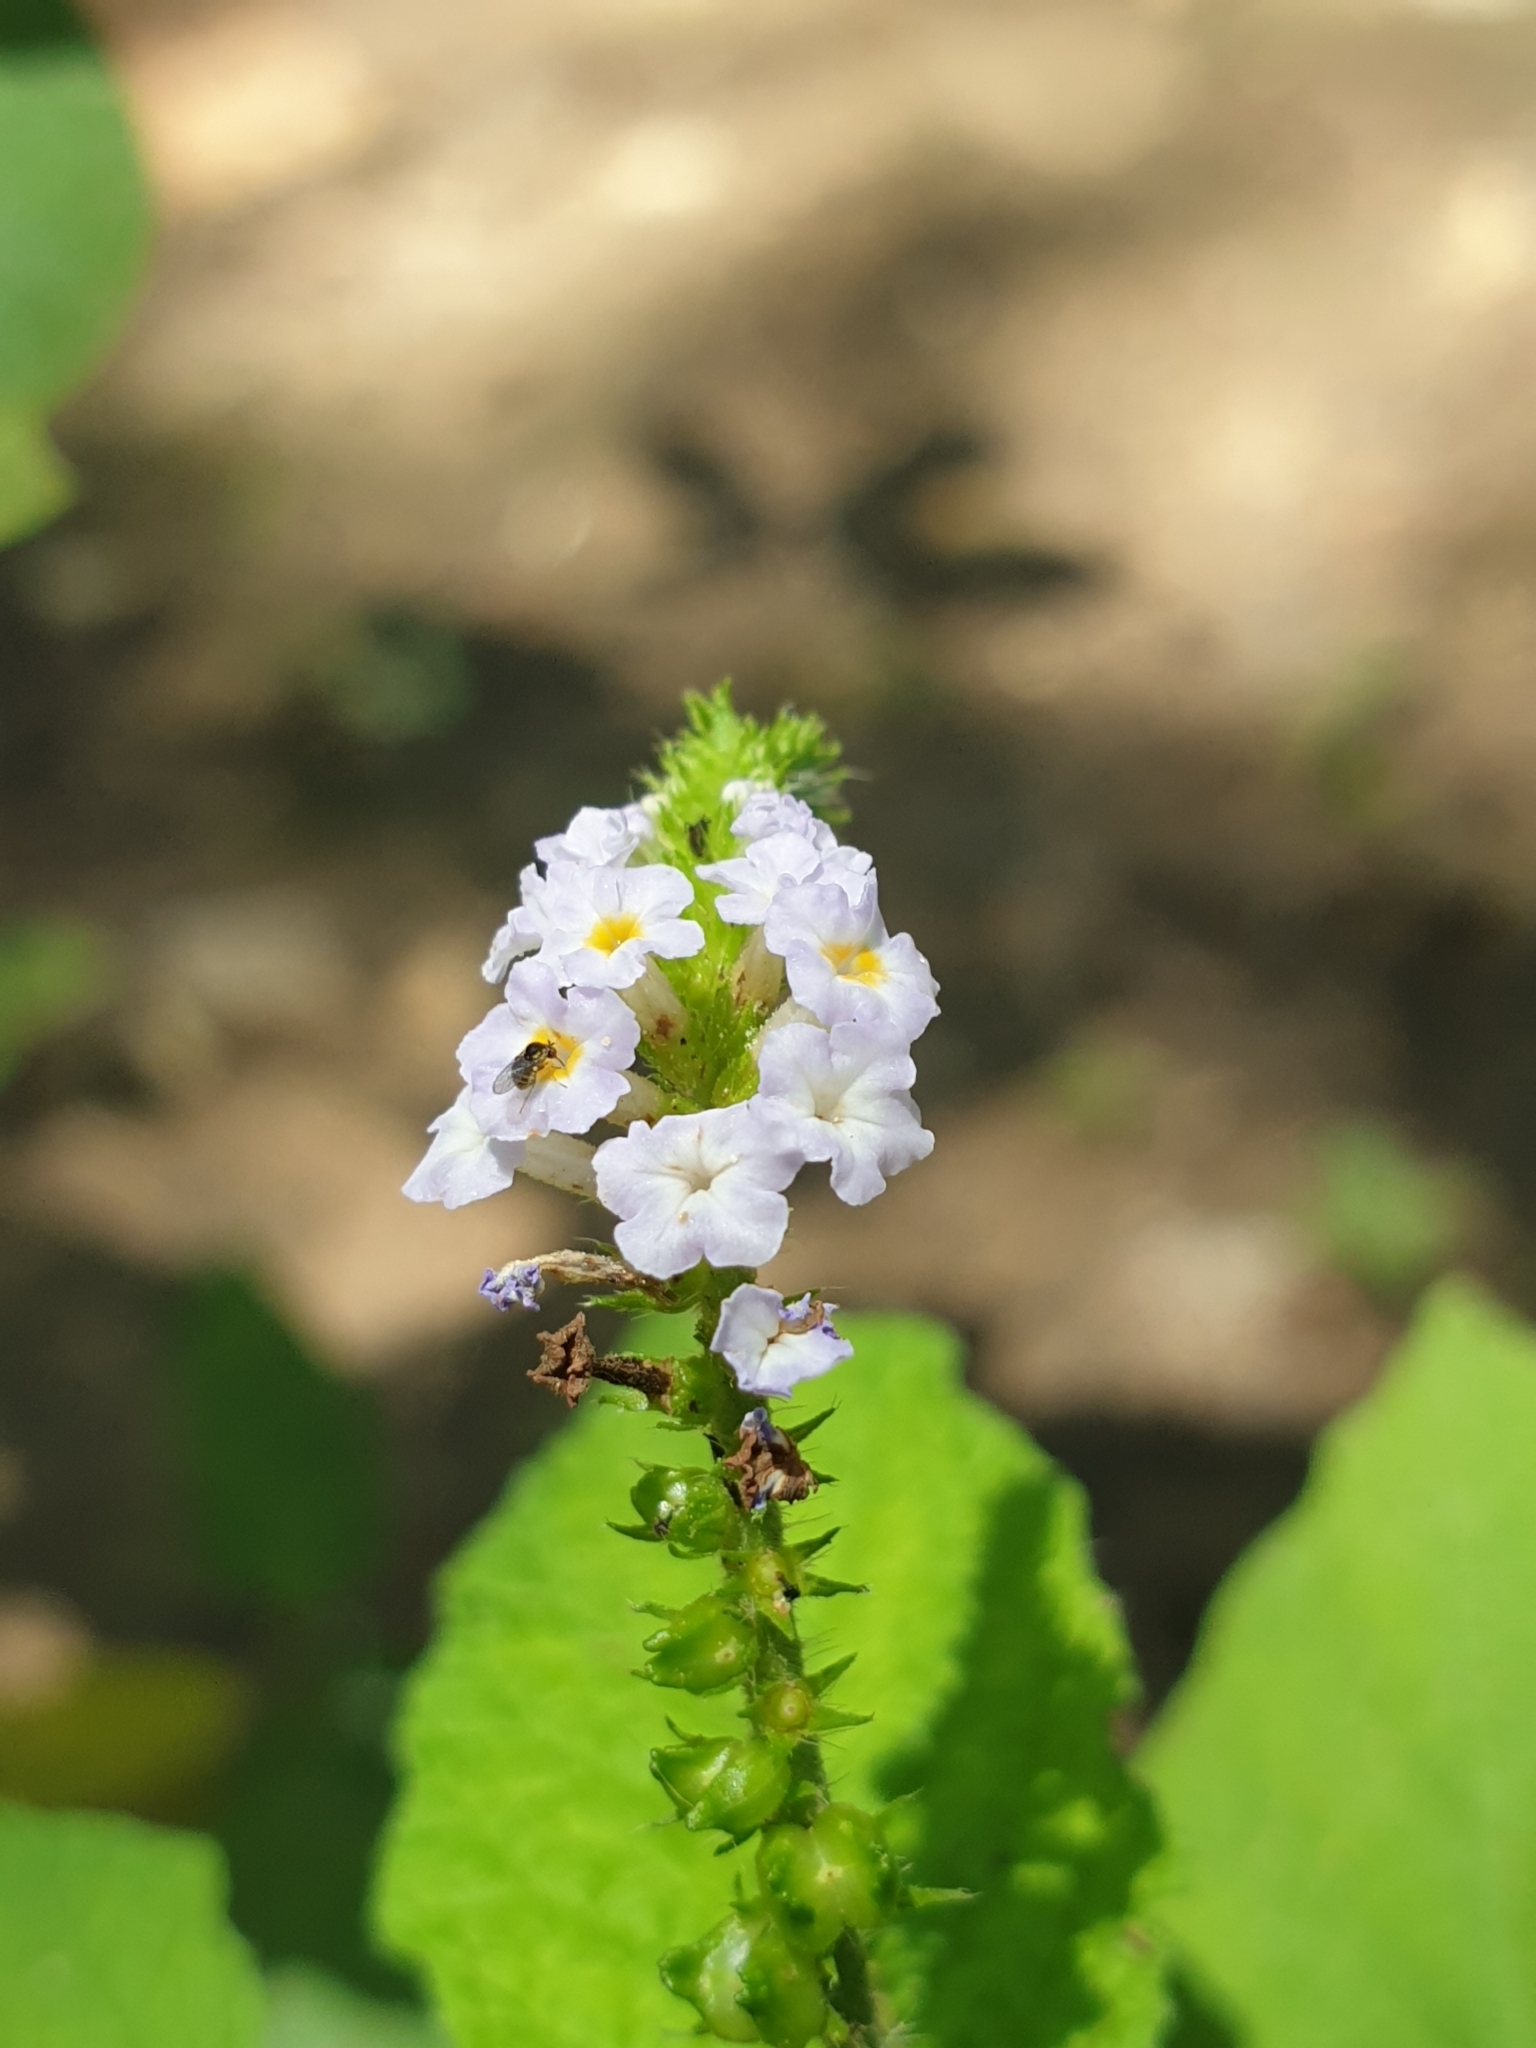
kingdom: Plantae
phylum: Tracheophyta
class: Magnoliopsida
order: Boraginales
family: Heliotropiaceae
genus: Heliotropium
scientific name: Heliotropium indicum
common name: Indian heliotrope
